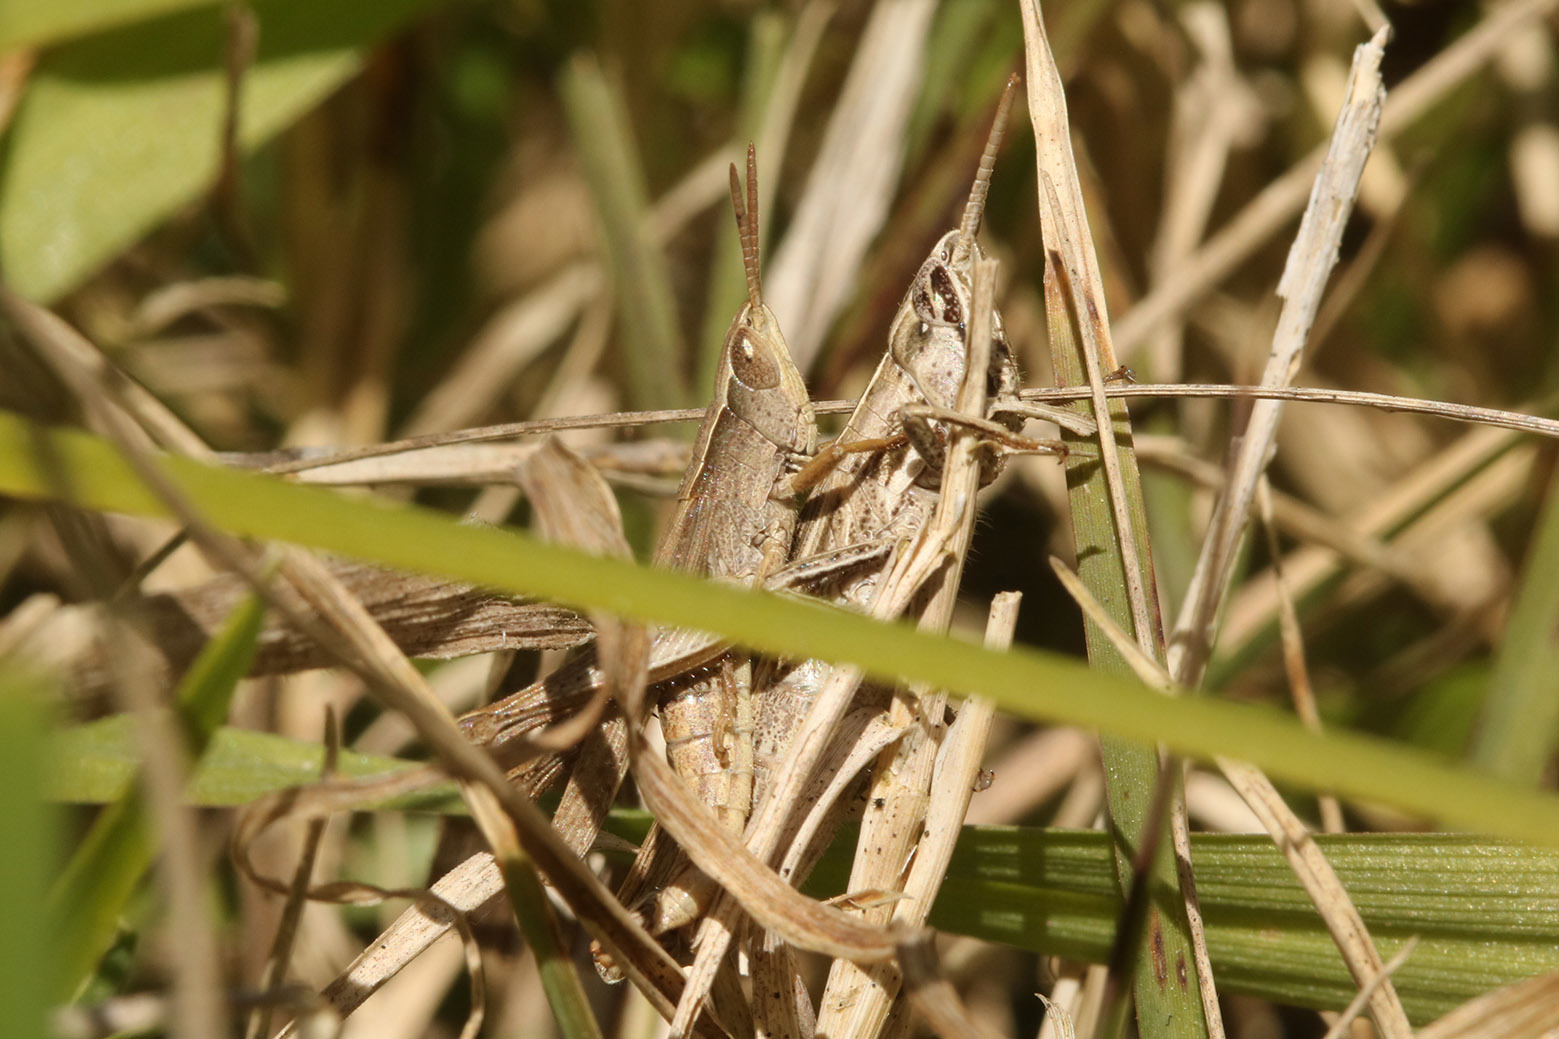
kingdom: Animalia
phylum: Arthropoda
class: Insecta
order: Orthoptera
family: Acrididae
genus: Laplatacris
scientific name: Laplatacris dispar
